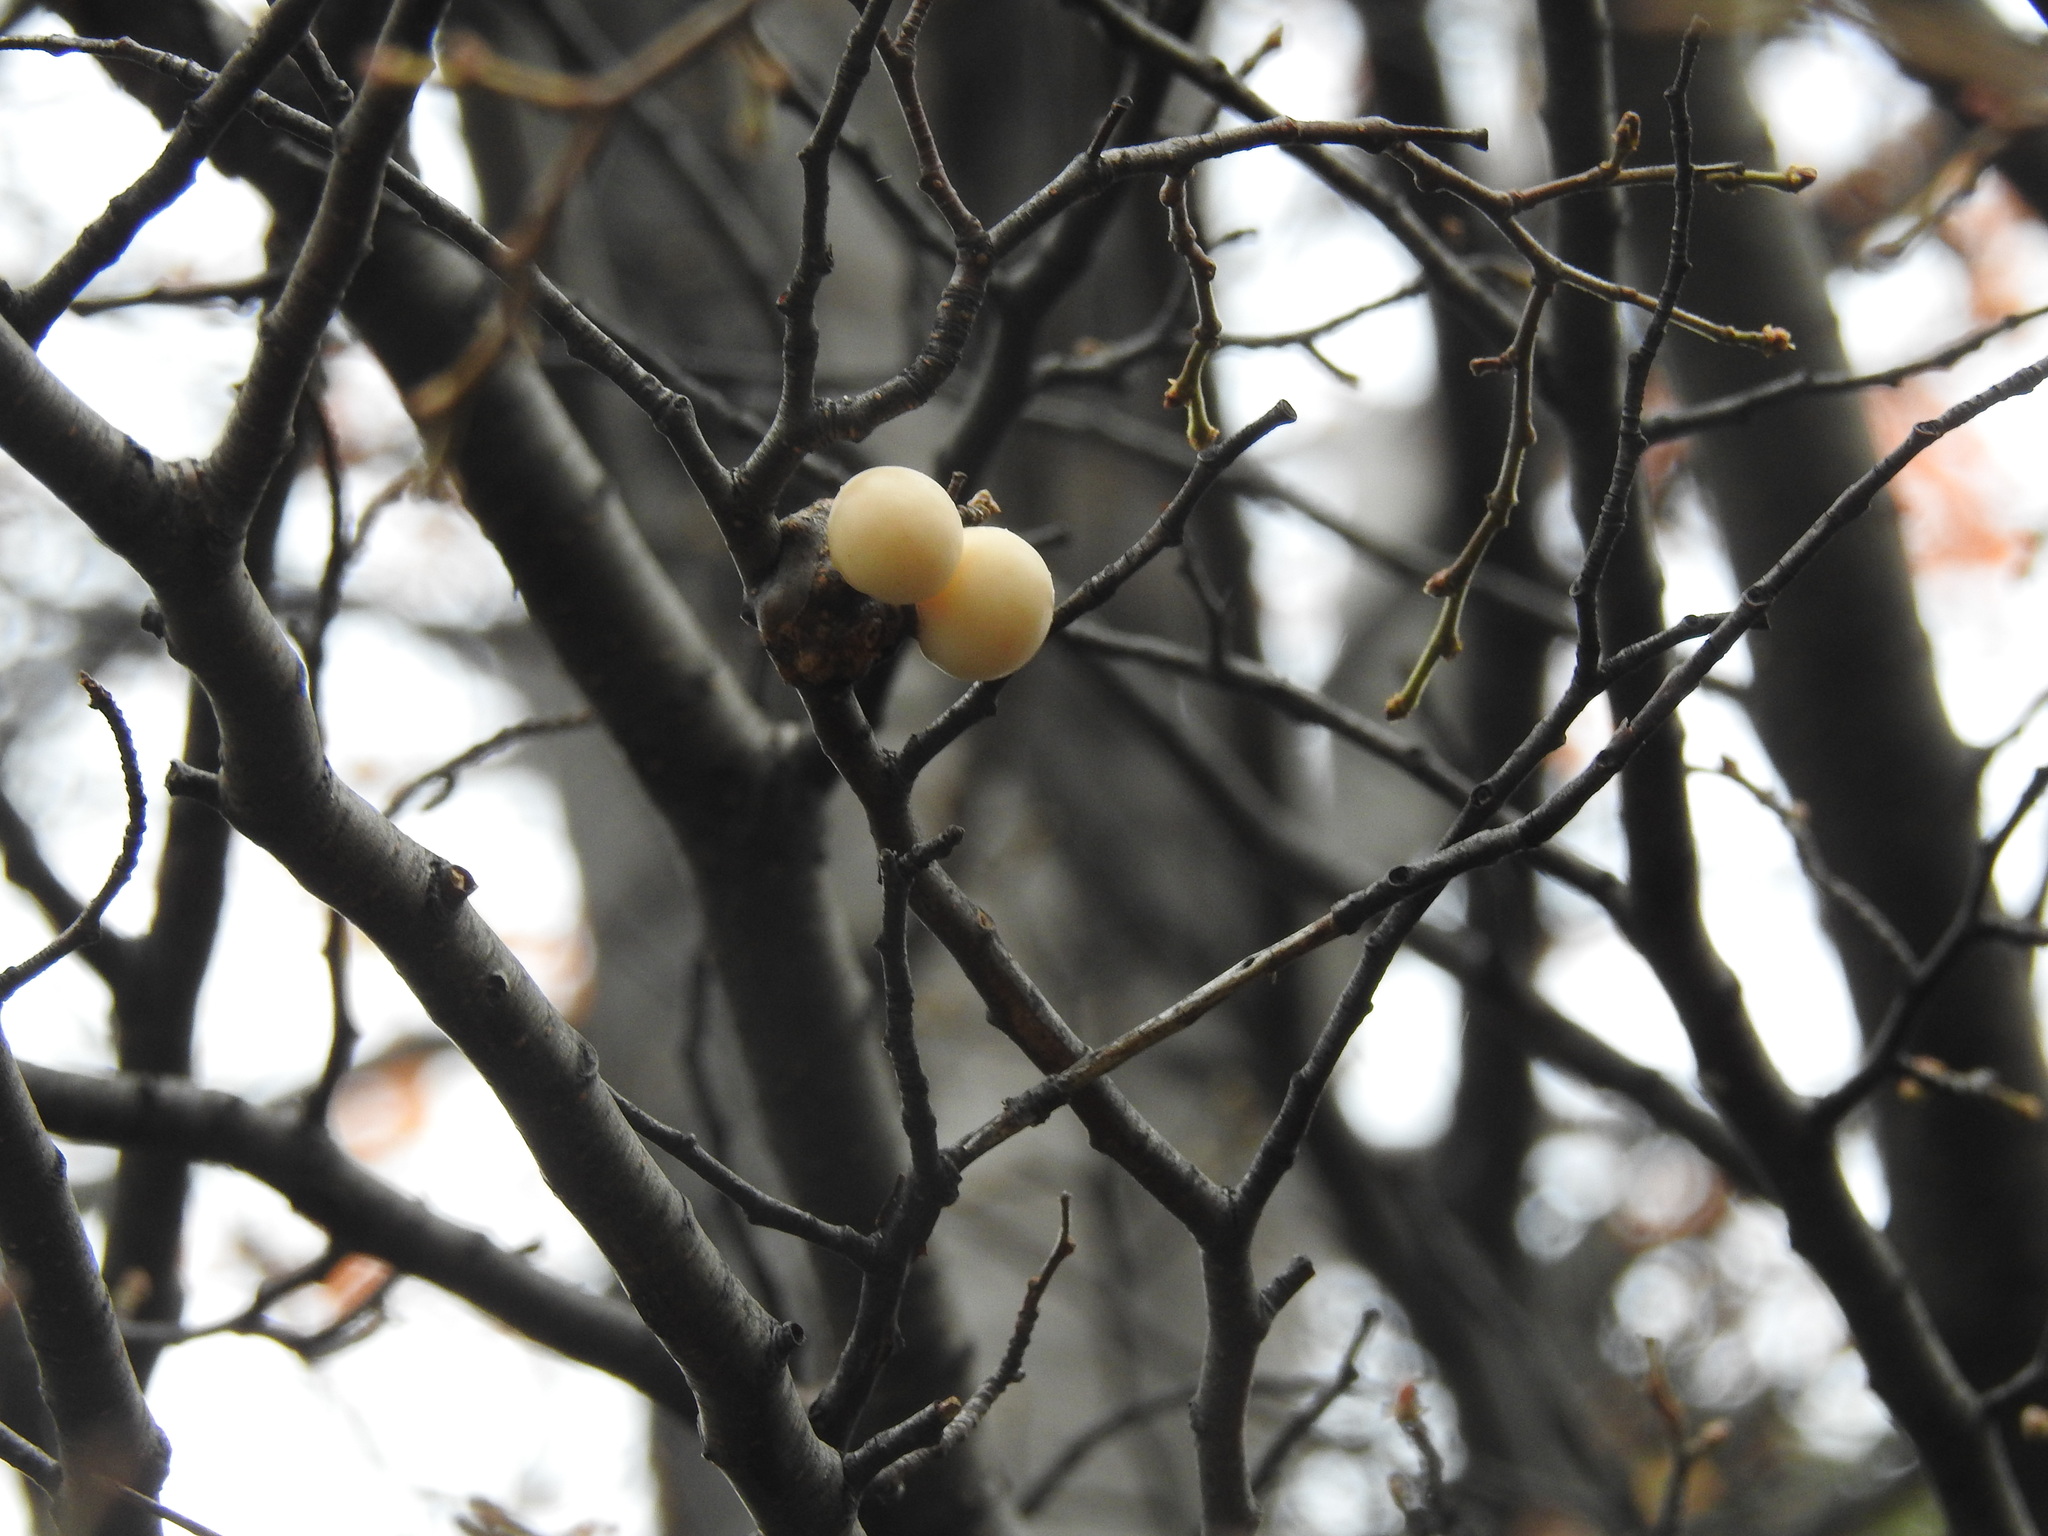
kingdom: Fungi
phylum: Ascomycota
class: Leotiomycetes
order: Cyttariales
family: Cyttariaceae
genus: Cyttaria
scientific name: Cyttaria darwinii
